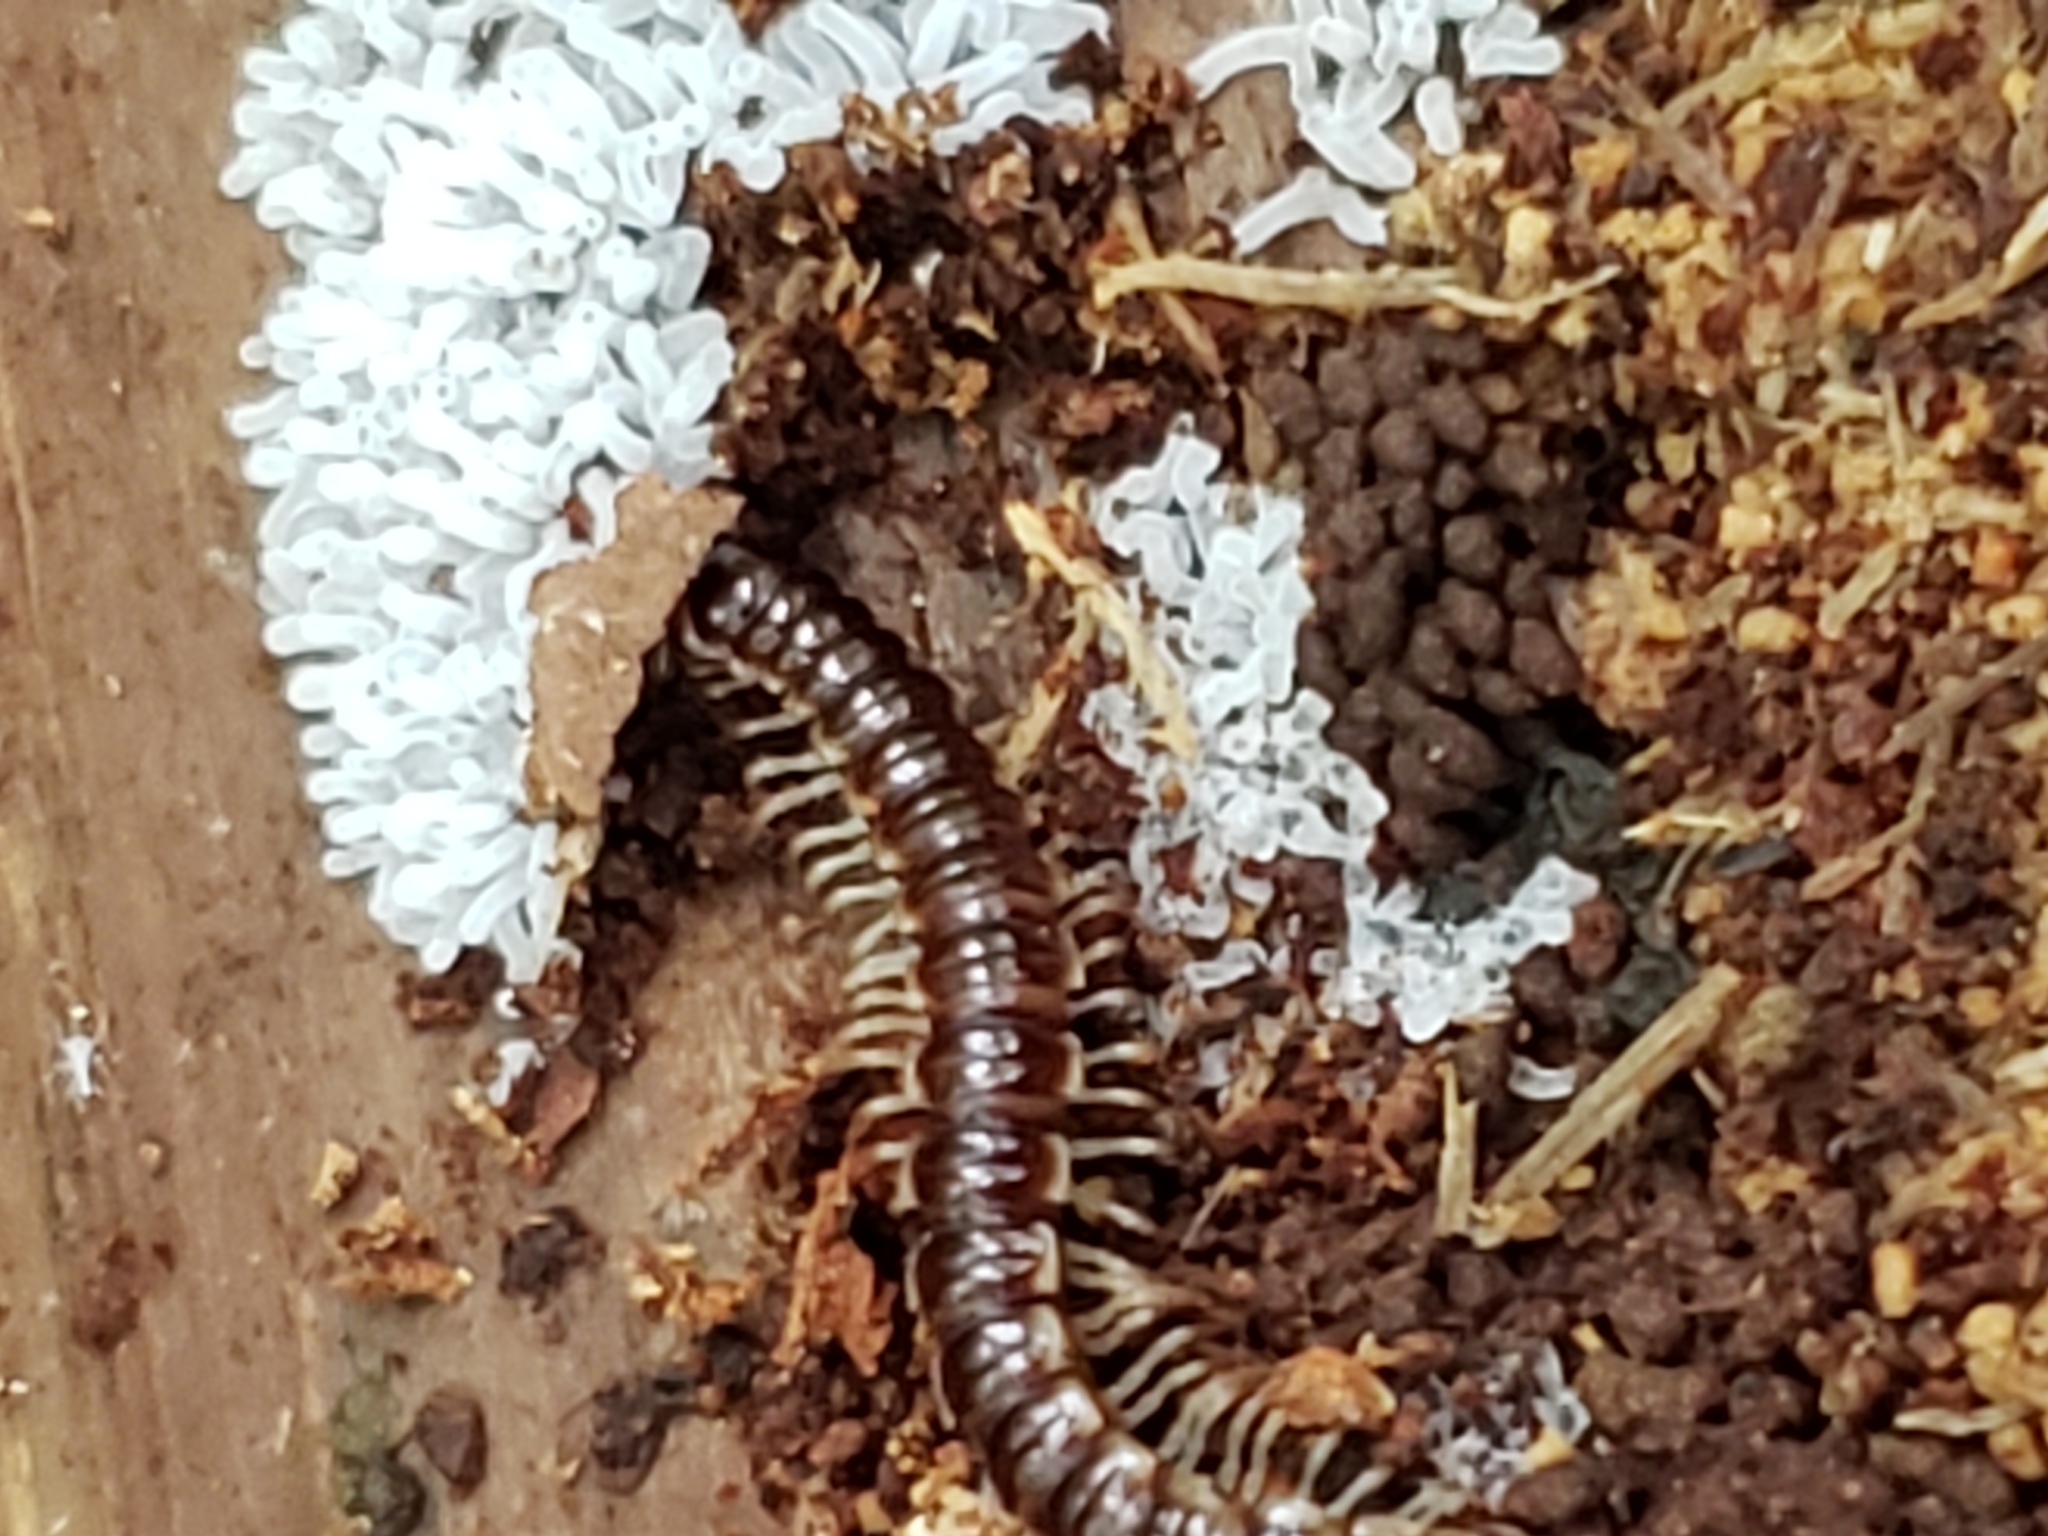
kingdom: Animalia
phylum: Arthropoda
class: Diplopoda
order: Polydesmida
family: Paradoxosomatidae
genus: Oxidus
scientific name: Oxidus gracilis
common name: Greenhouse millipede
